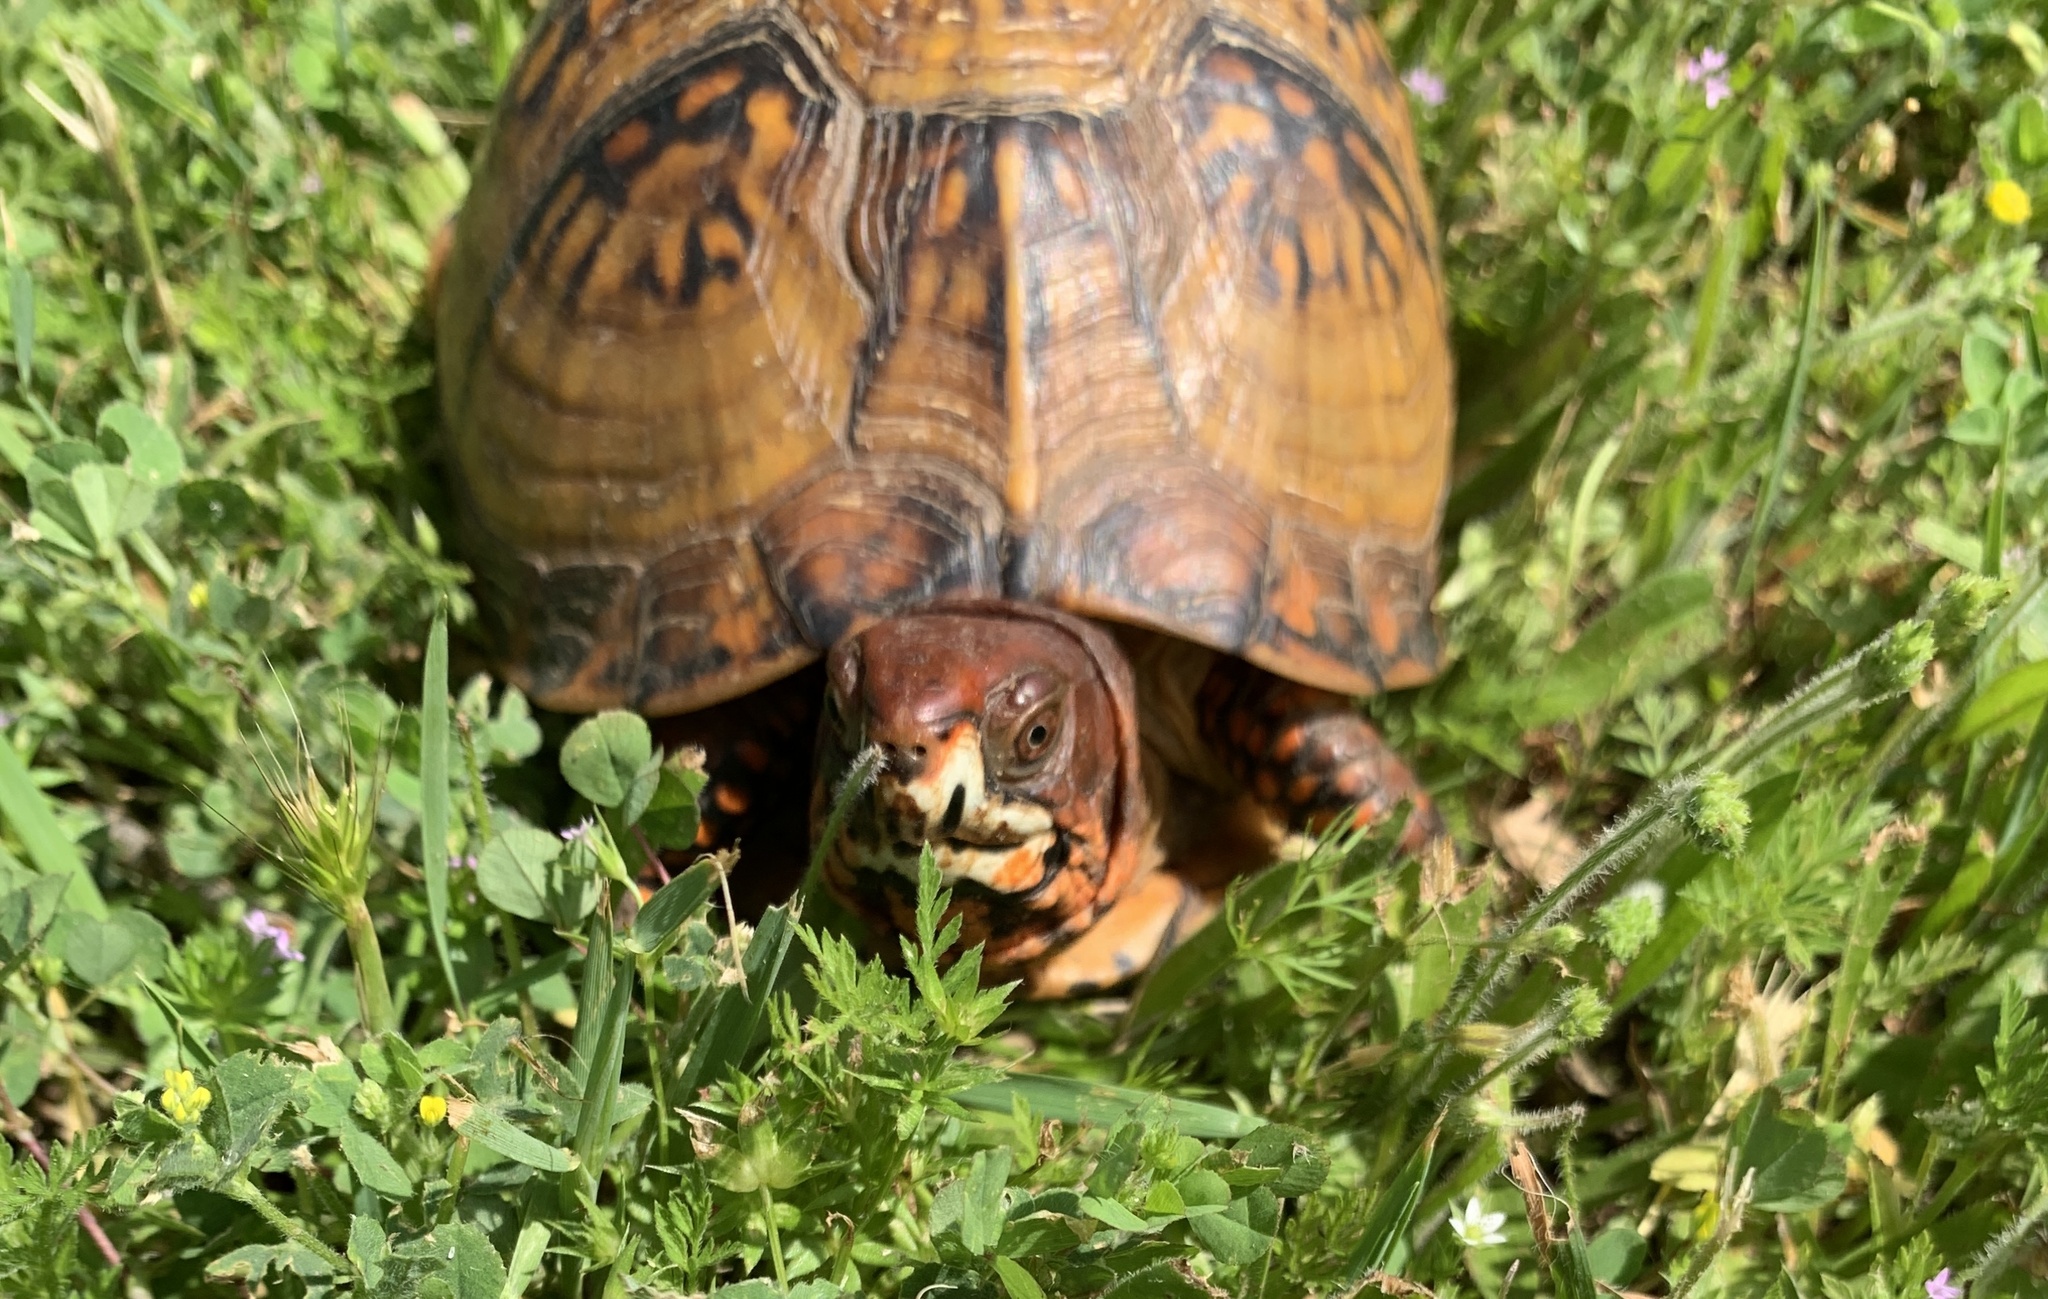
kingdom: Animalia
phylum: Chordata
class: Testudines
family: Emydidae
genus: Terrapene
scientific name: Terrapene carolina
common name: Common box turtle
